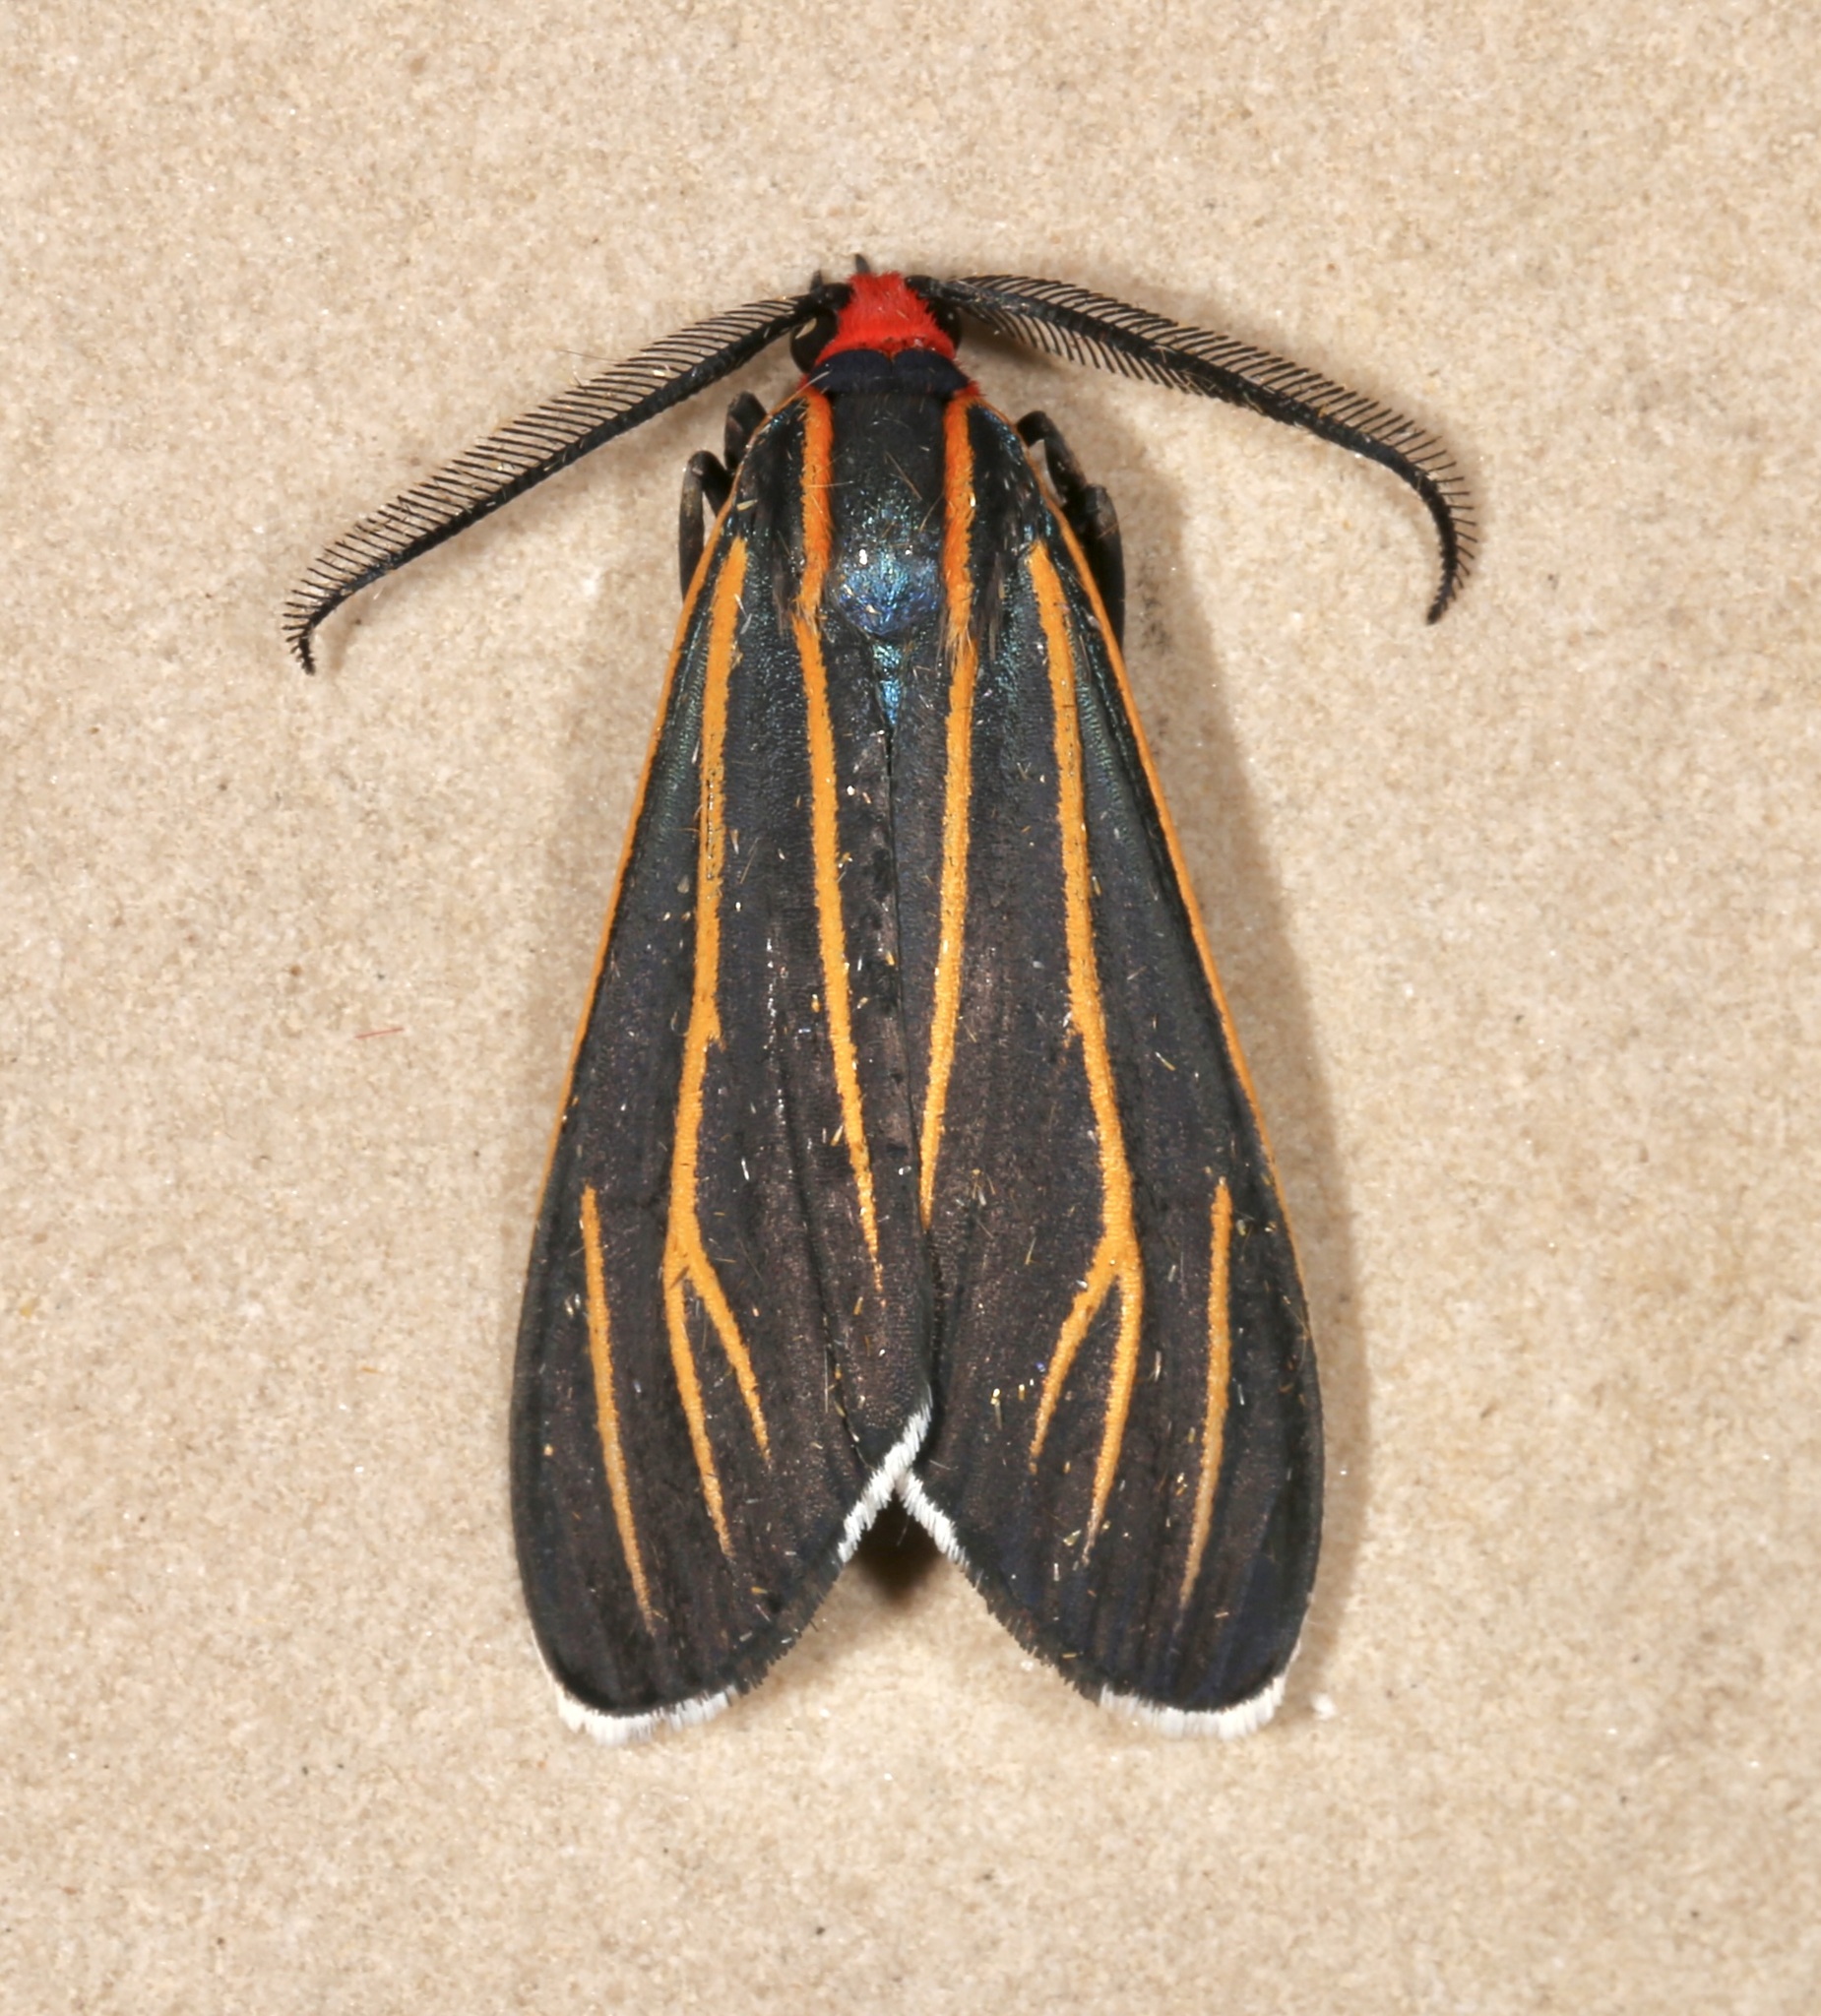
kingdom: Animalia
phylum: Arthropoda
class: Insecta
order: Lepidoptera
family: Erebidae
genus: Ctenucha
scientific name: Ctenucha venosa
